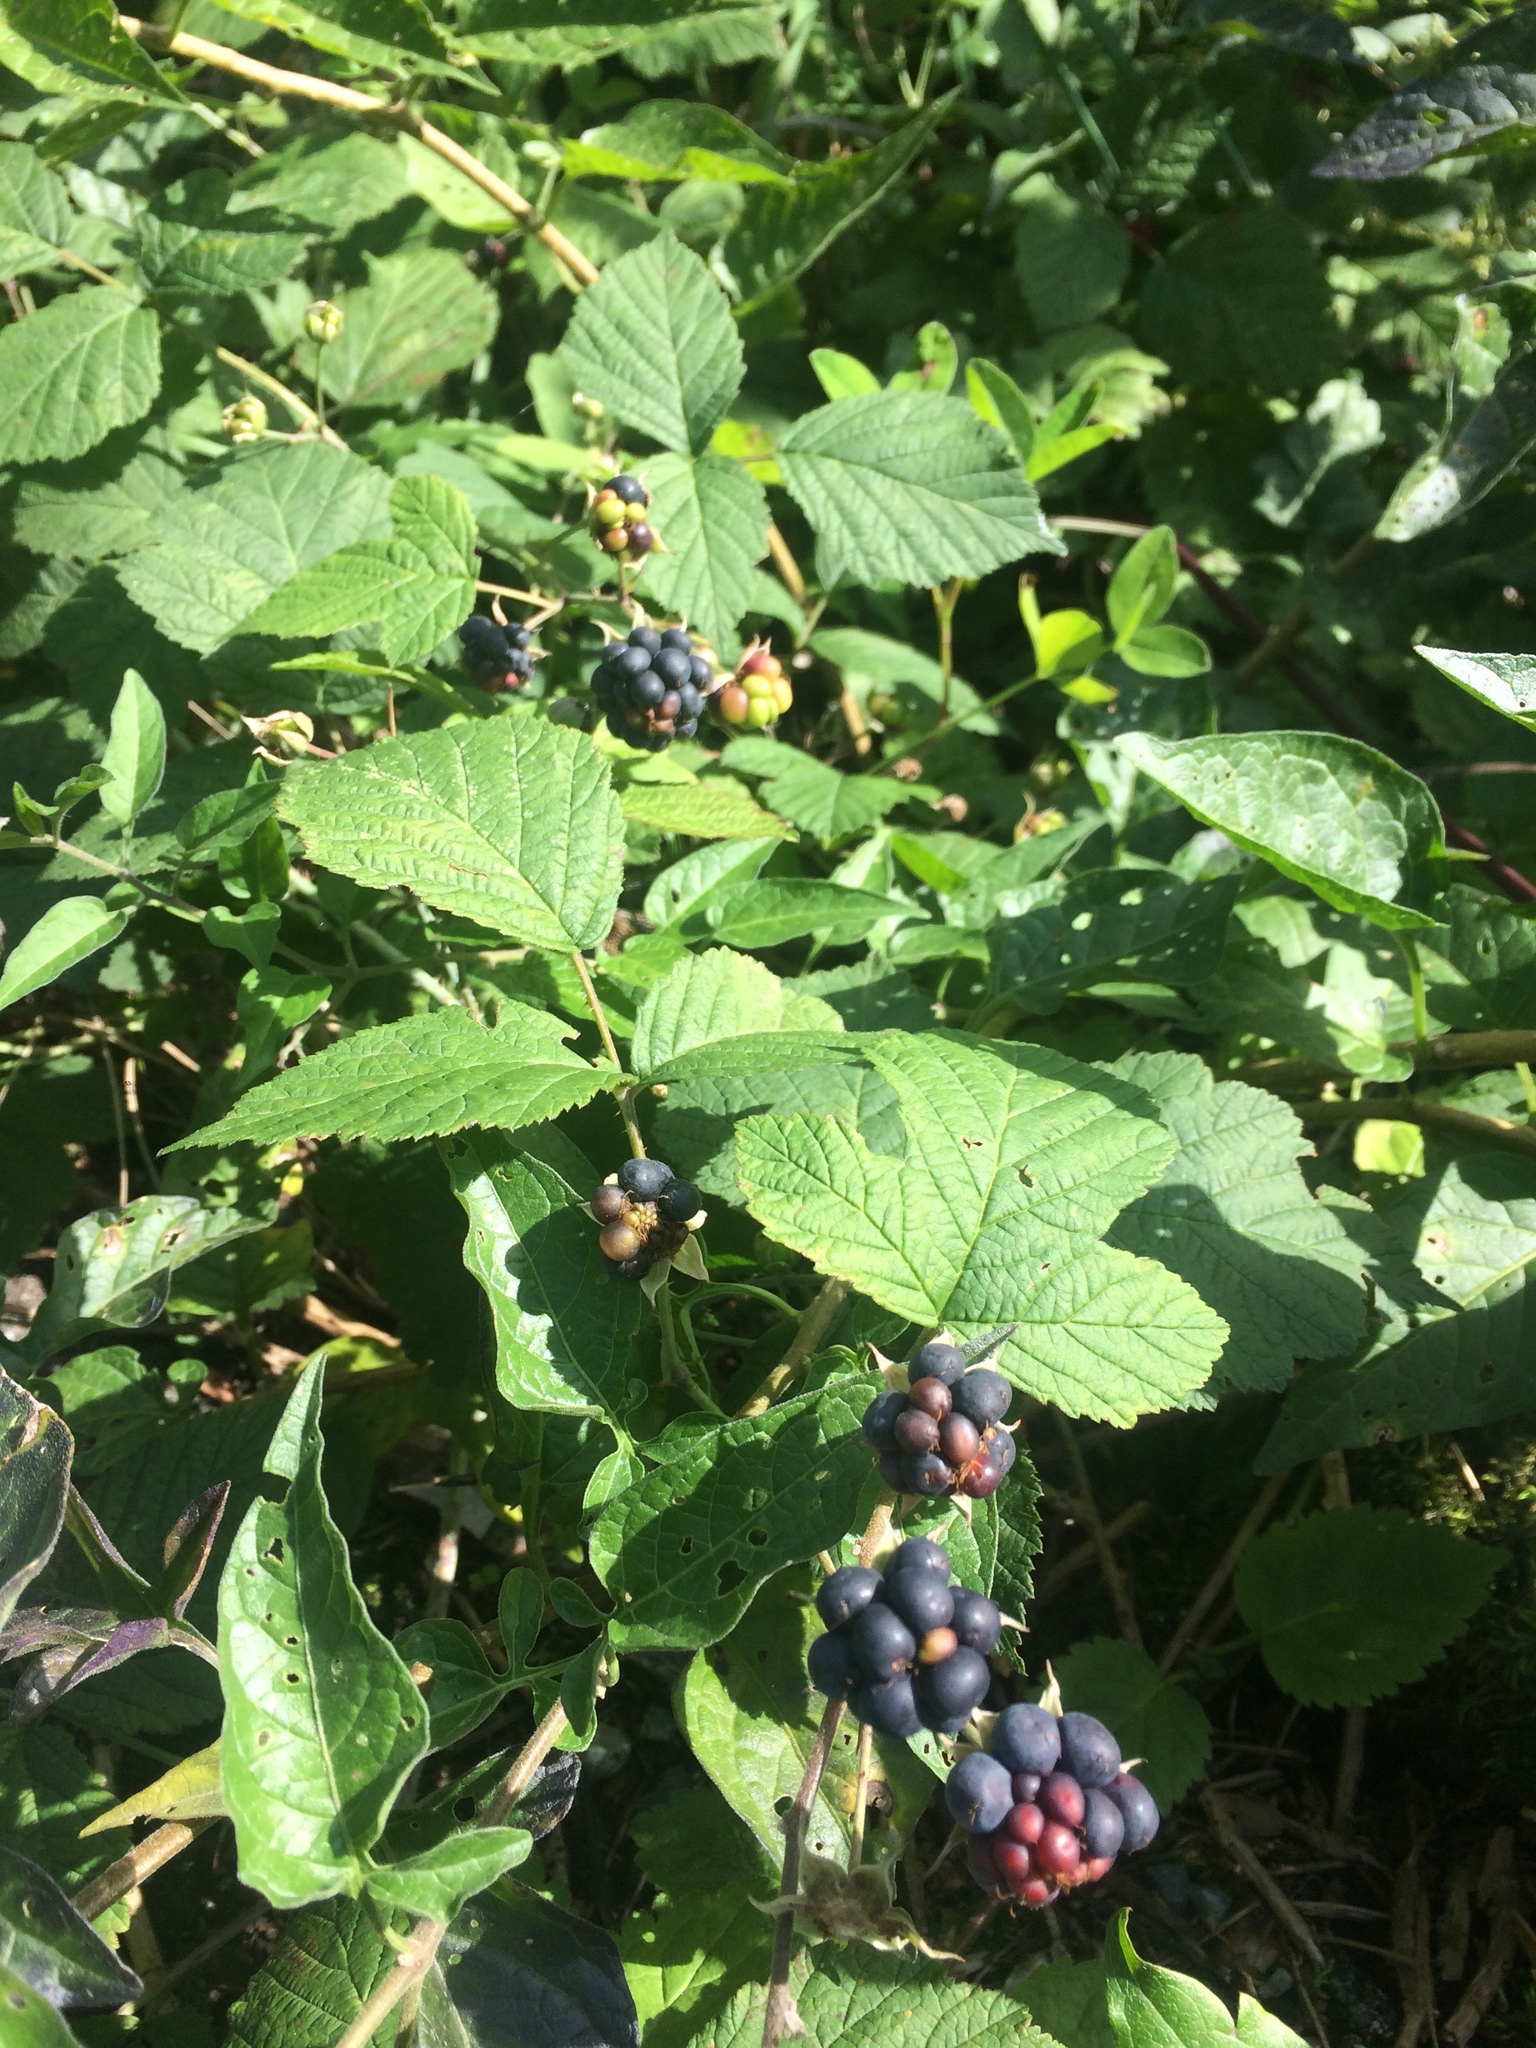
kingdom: Plantae
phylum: Tracheophyta
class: Magnoliopsida
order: Rosales
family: Rosaceae
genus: Rubus
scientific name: Rubus caesius
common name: Dewberry
